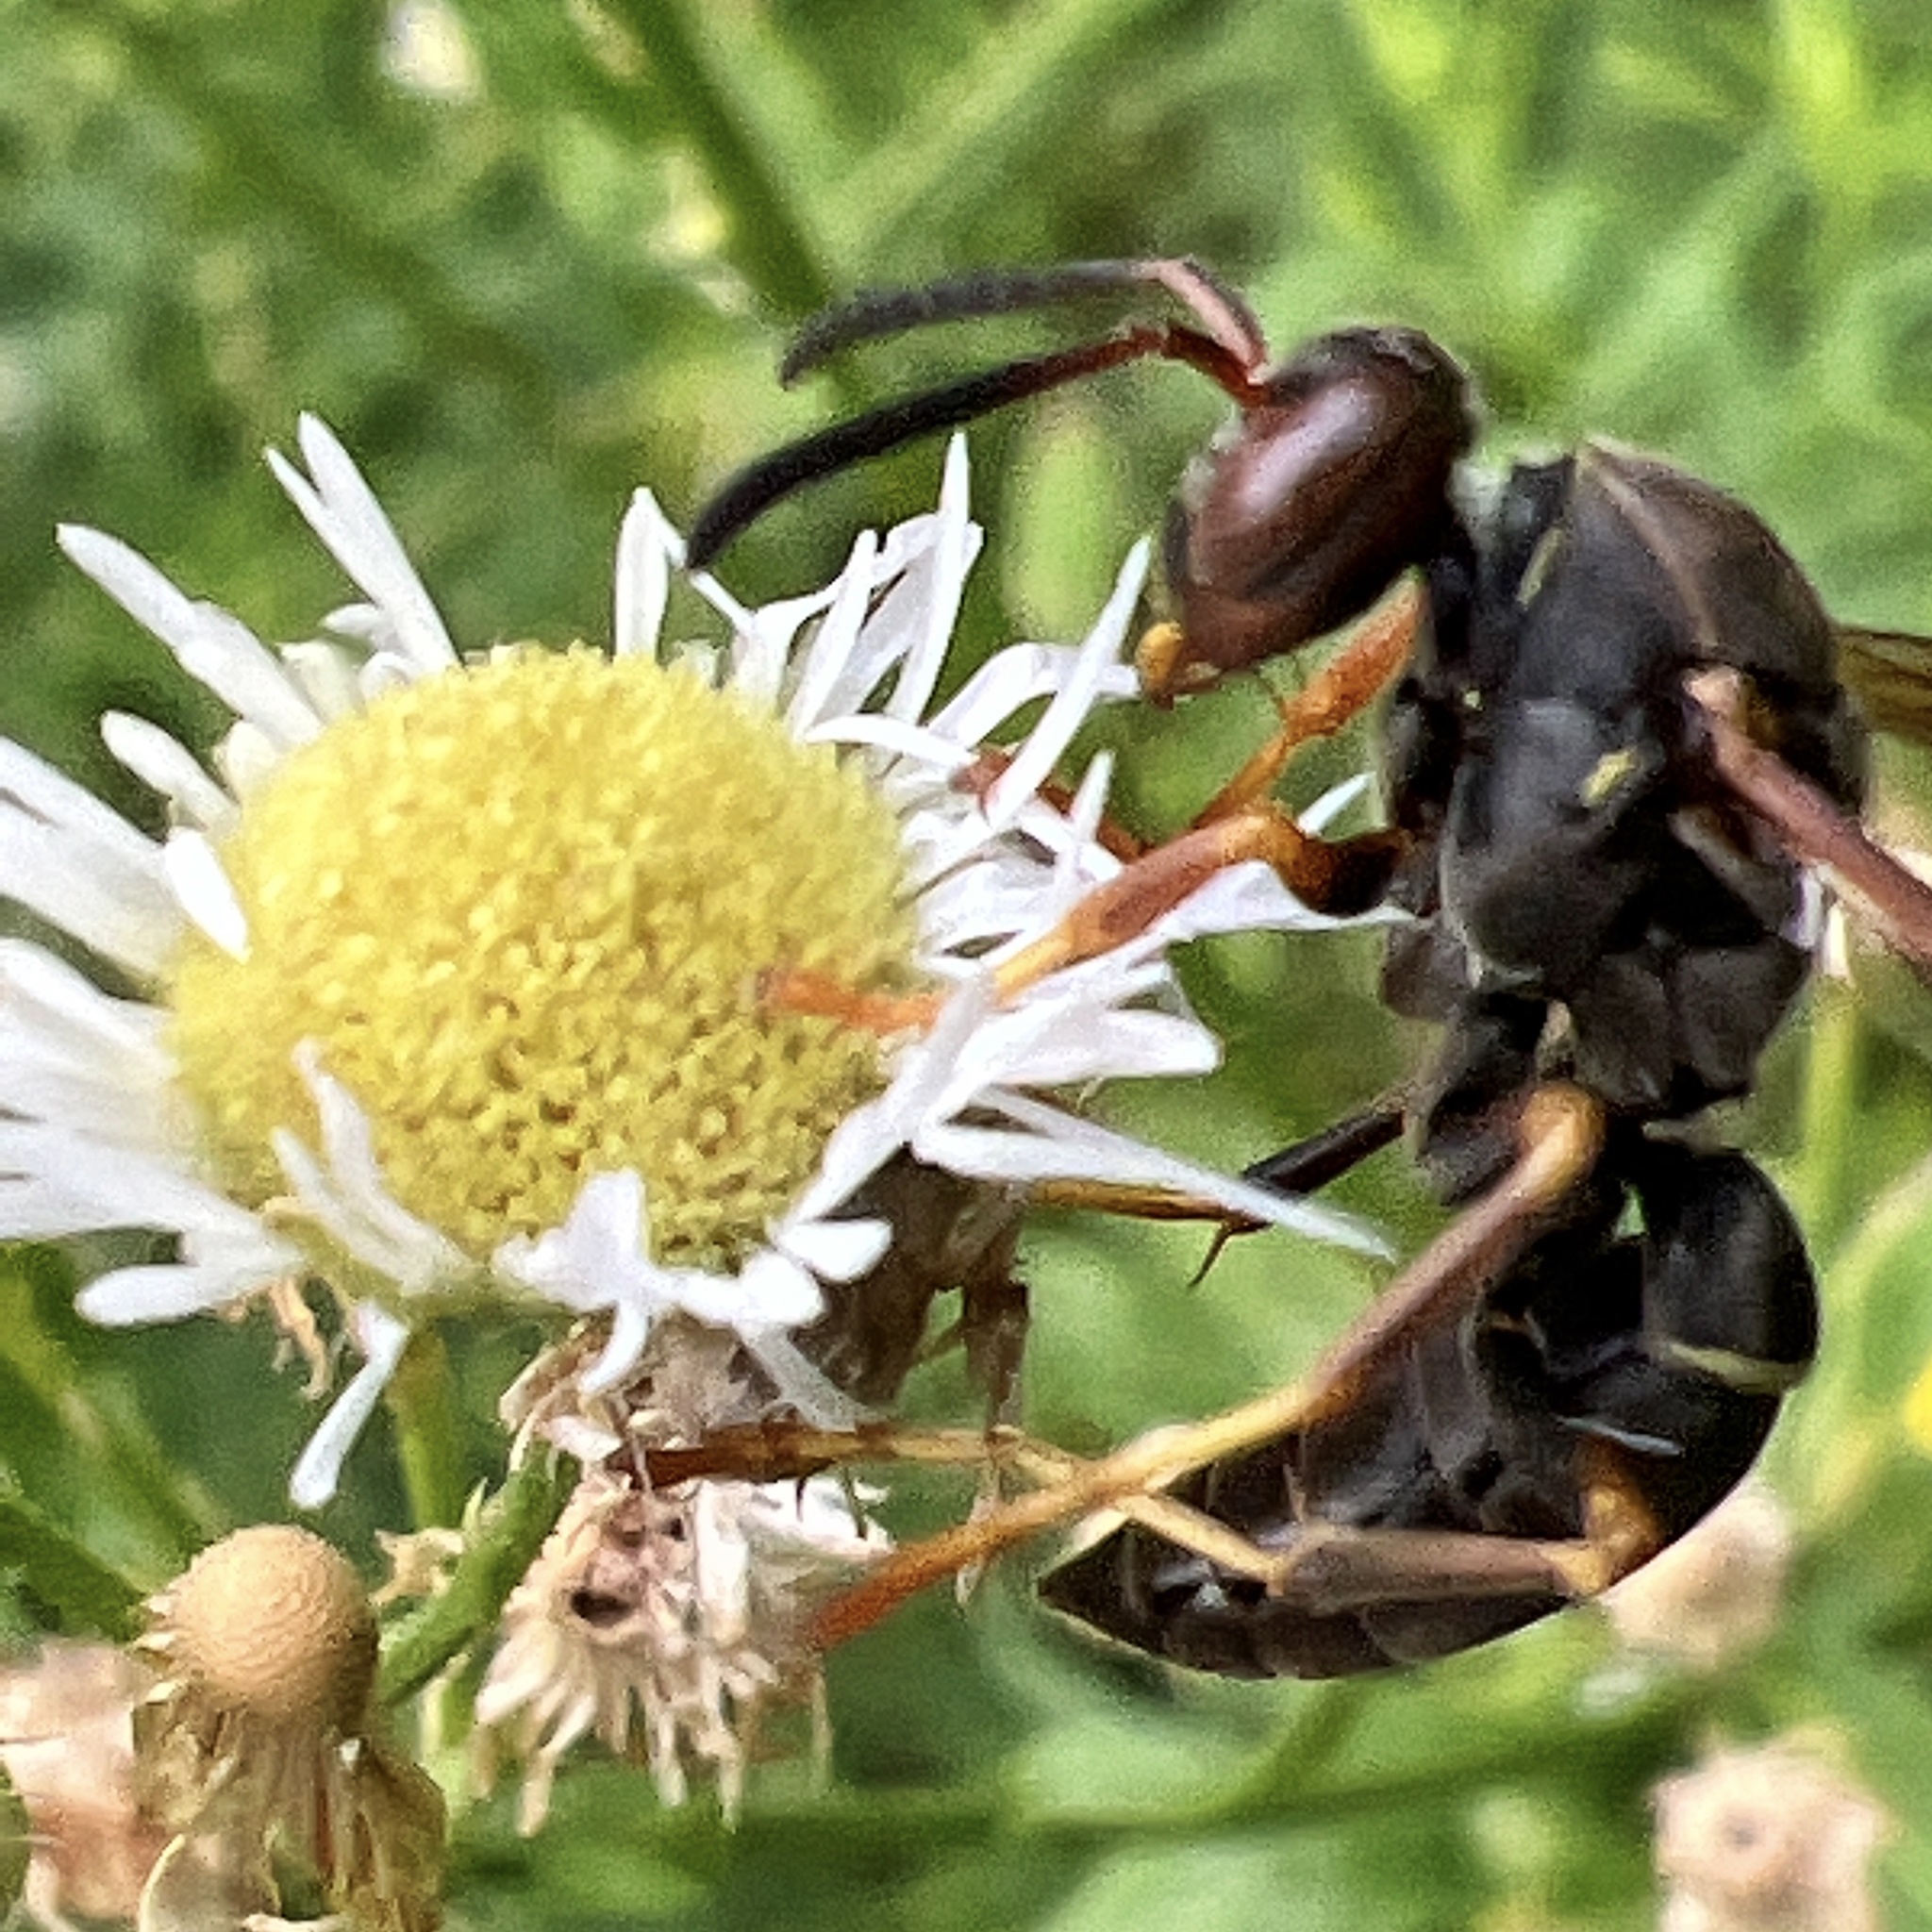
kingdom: Animalia
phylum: Arthropoda
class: Insecta
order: Hymenoptera
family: Eumenidae
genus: Polistes
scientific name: Polistes fuscatus
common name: Dark paper wasp
